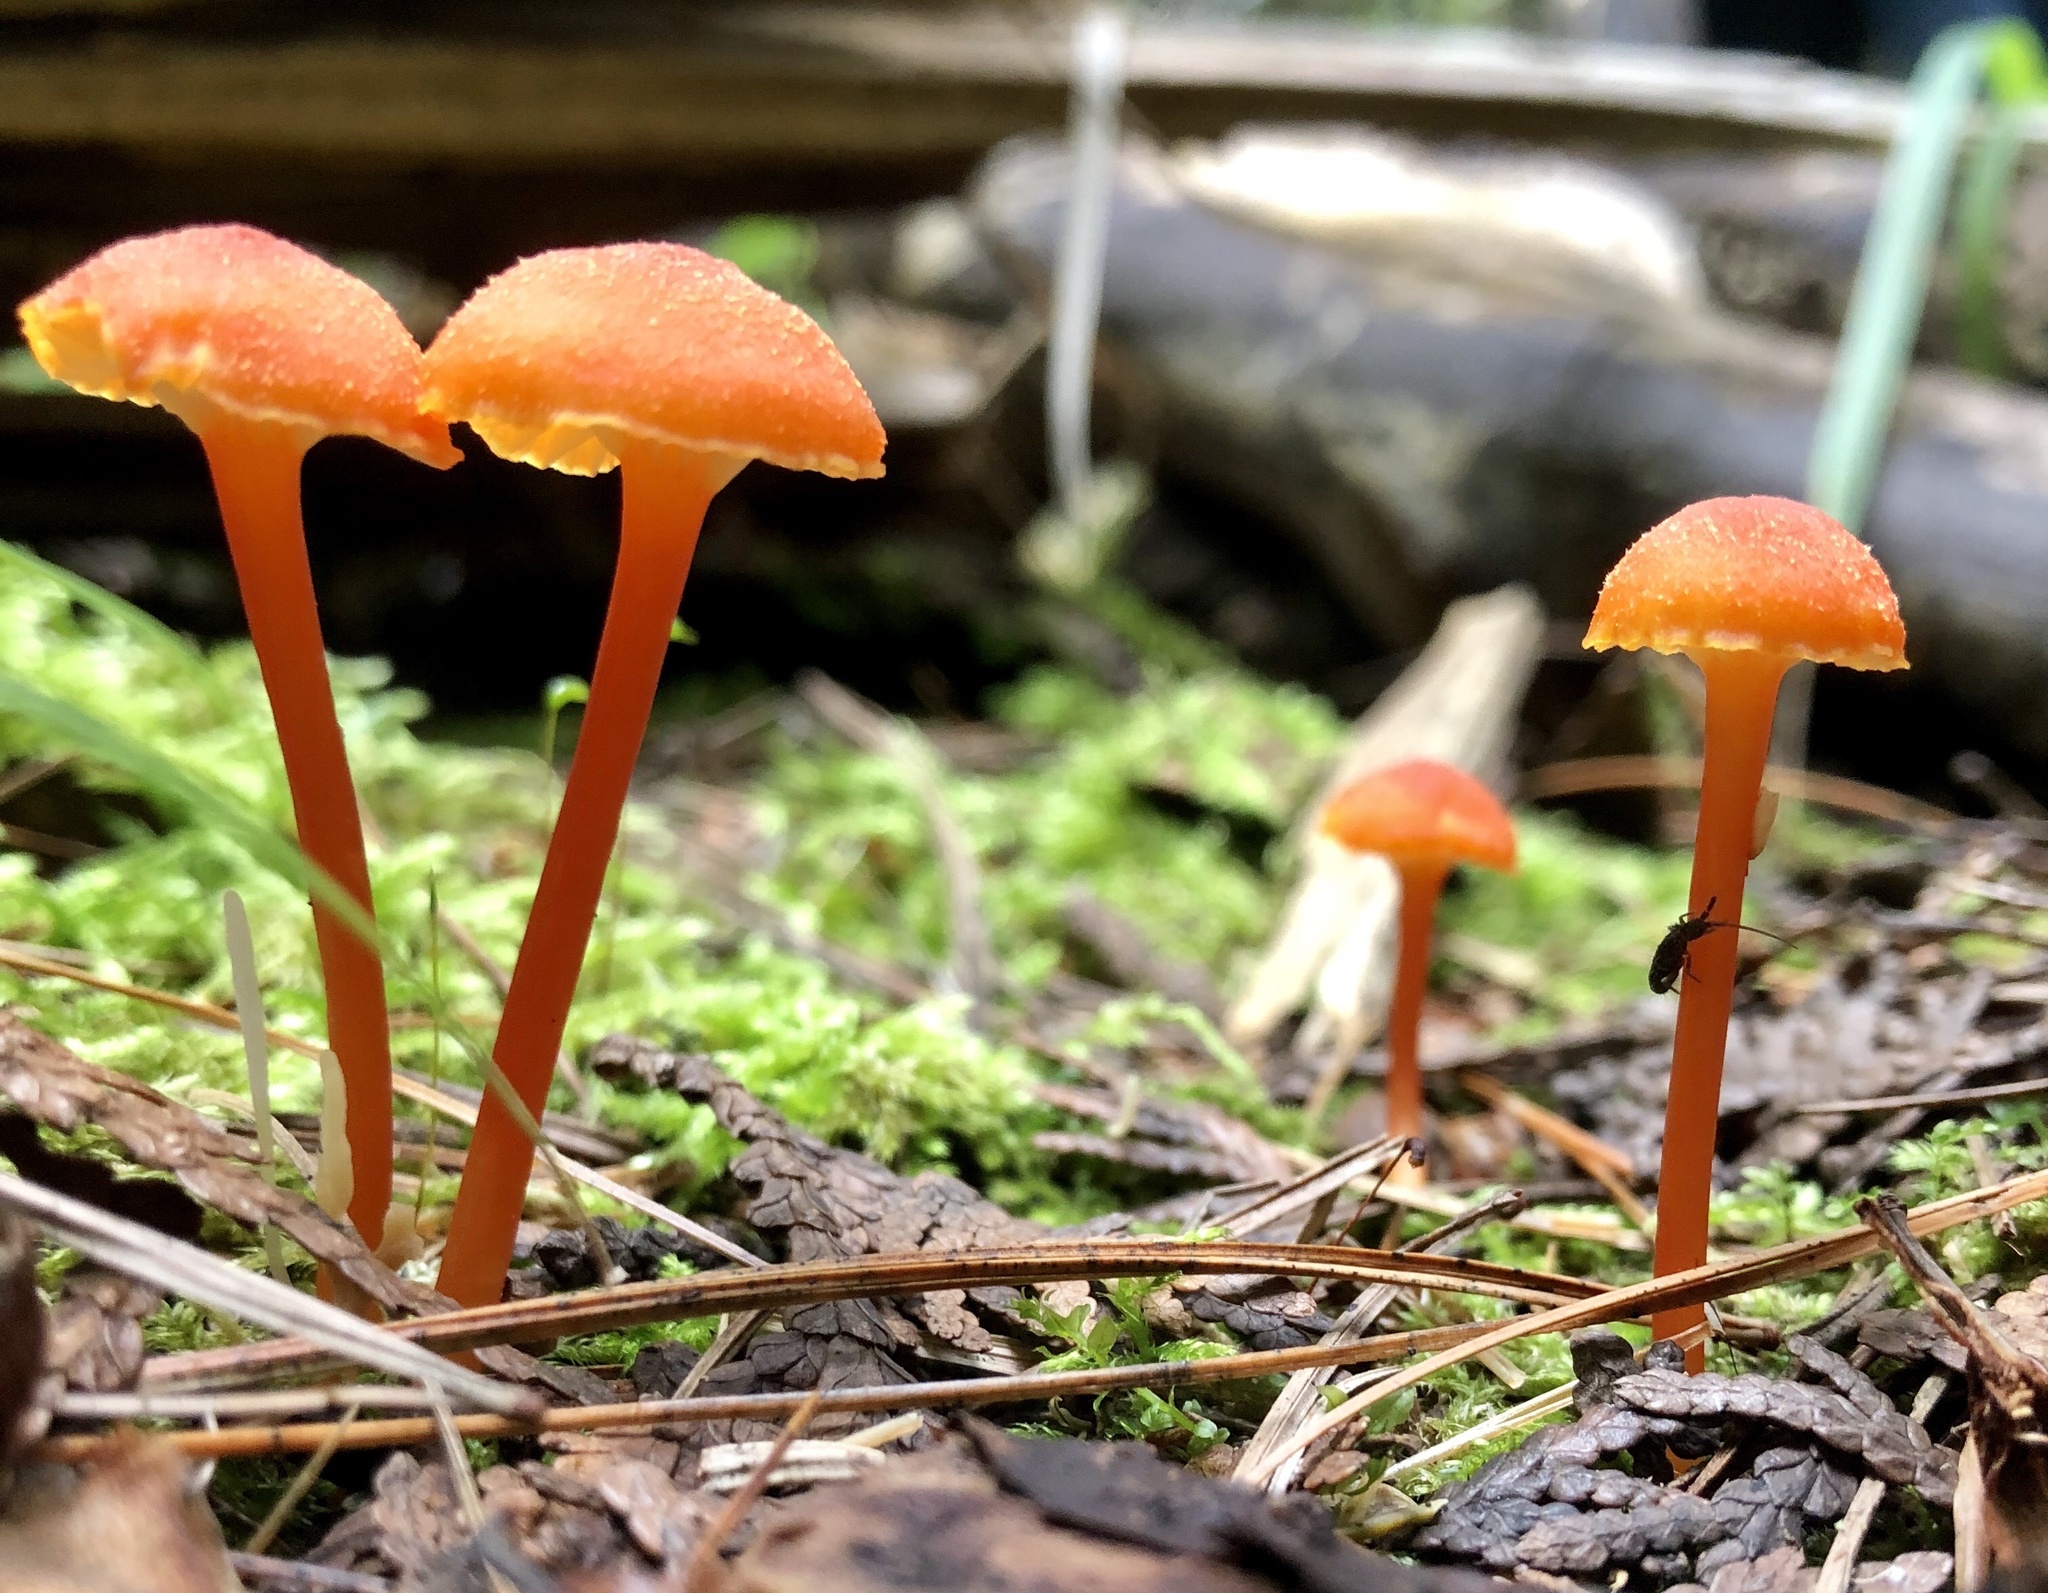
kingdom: Fungi
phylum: Basidiomycota
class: Agaricomycetes
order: Agaricales
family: Hygrophoraceae
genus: Hygrocybe
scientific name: Hygrocybe cantharellus
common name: Goblet waxcap
